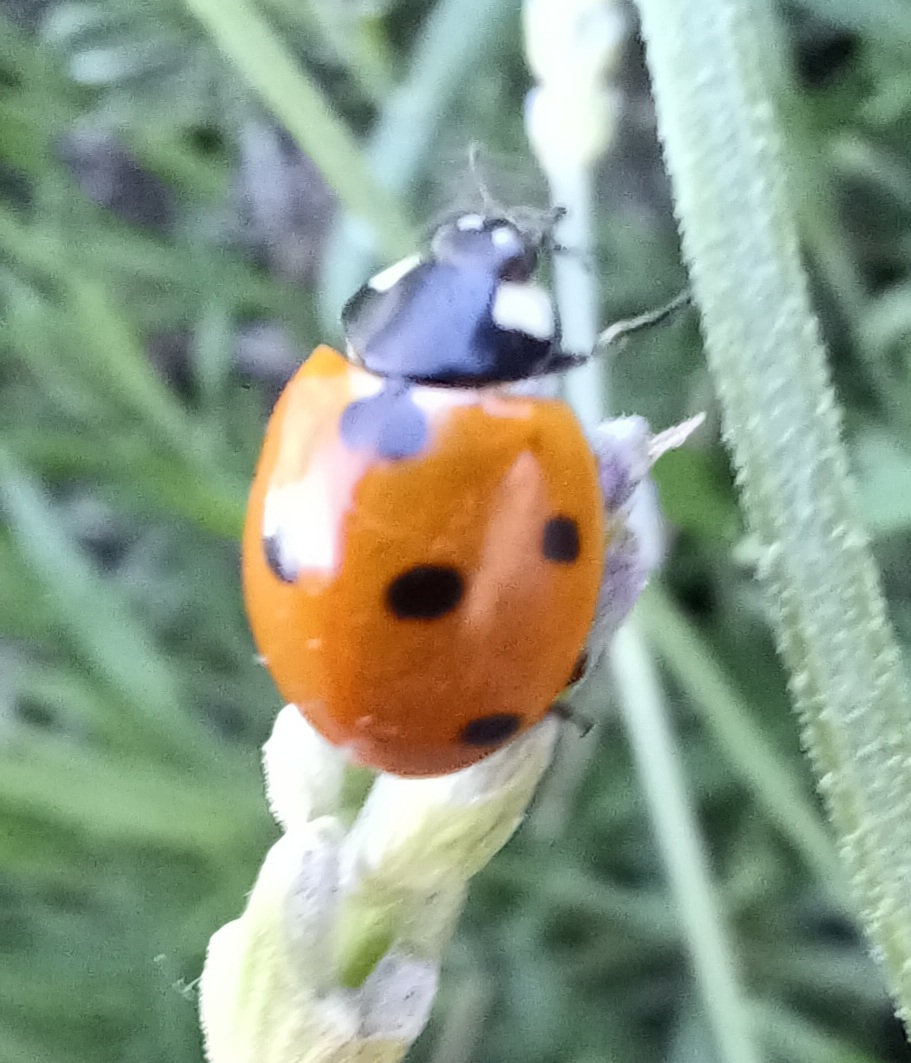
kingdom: Animalia
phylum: Arthropoda
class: Insecta
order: Coleoptera
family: Coccinellidae
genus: Coccinella
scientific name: Coccinella septempunctata
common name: Sevenspotted lady beetle
